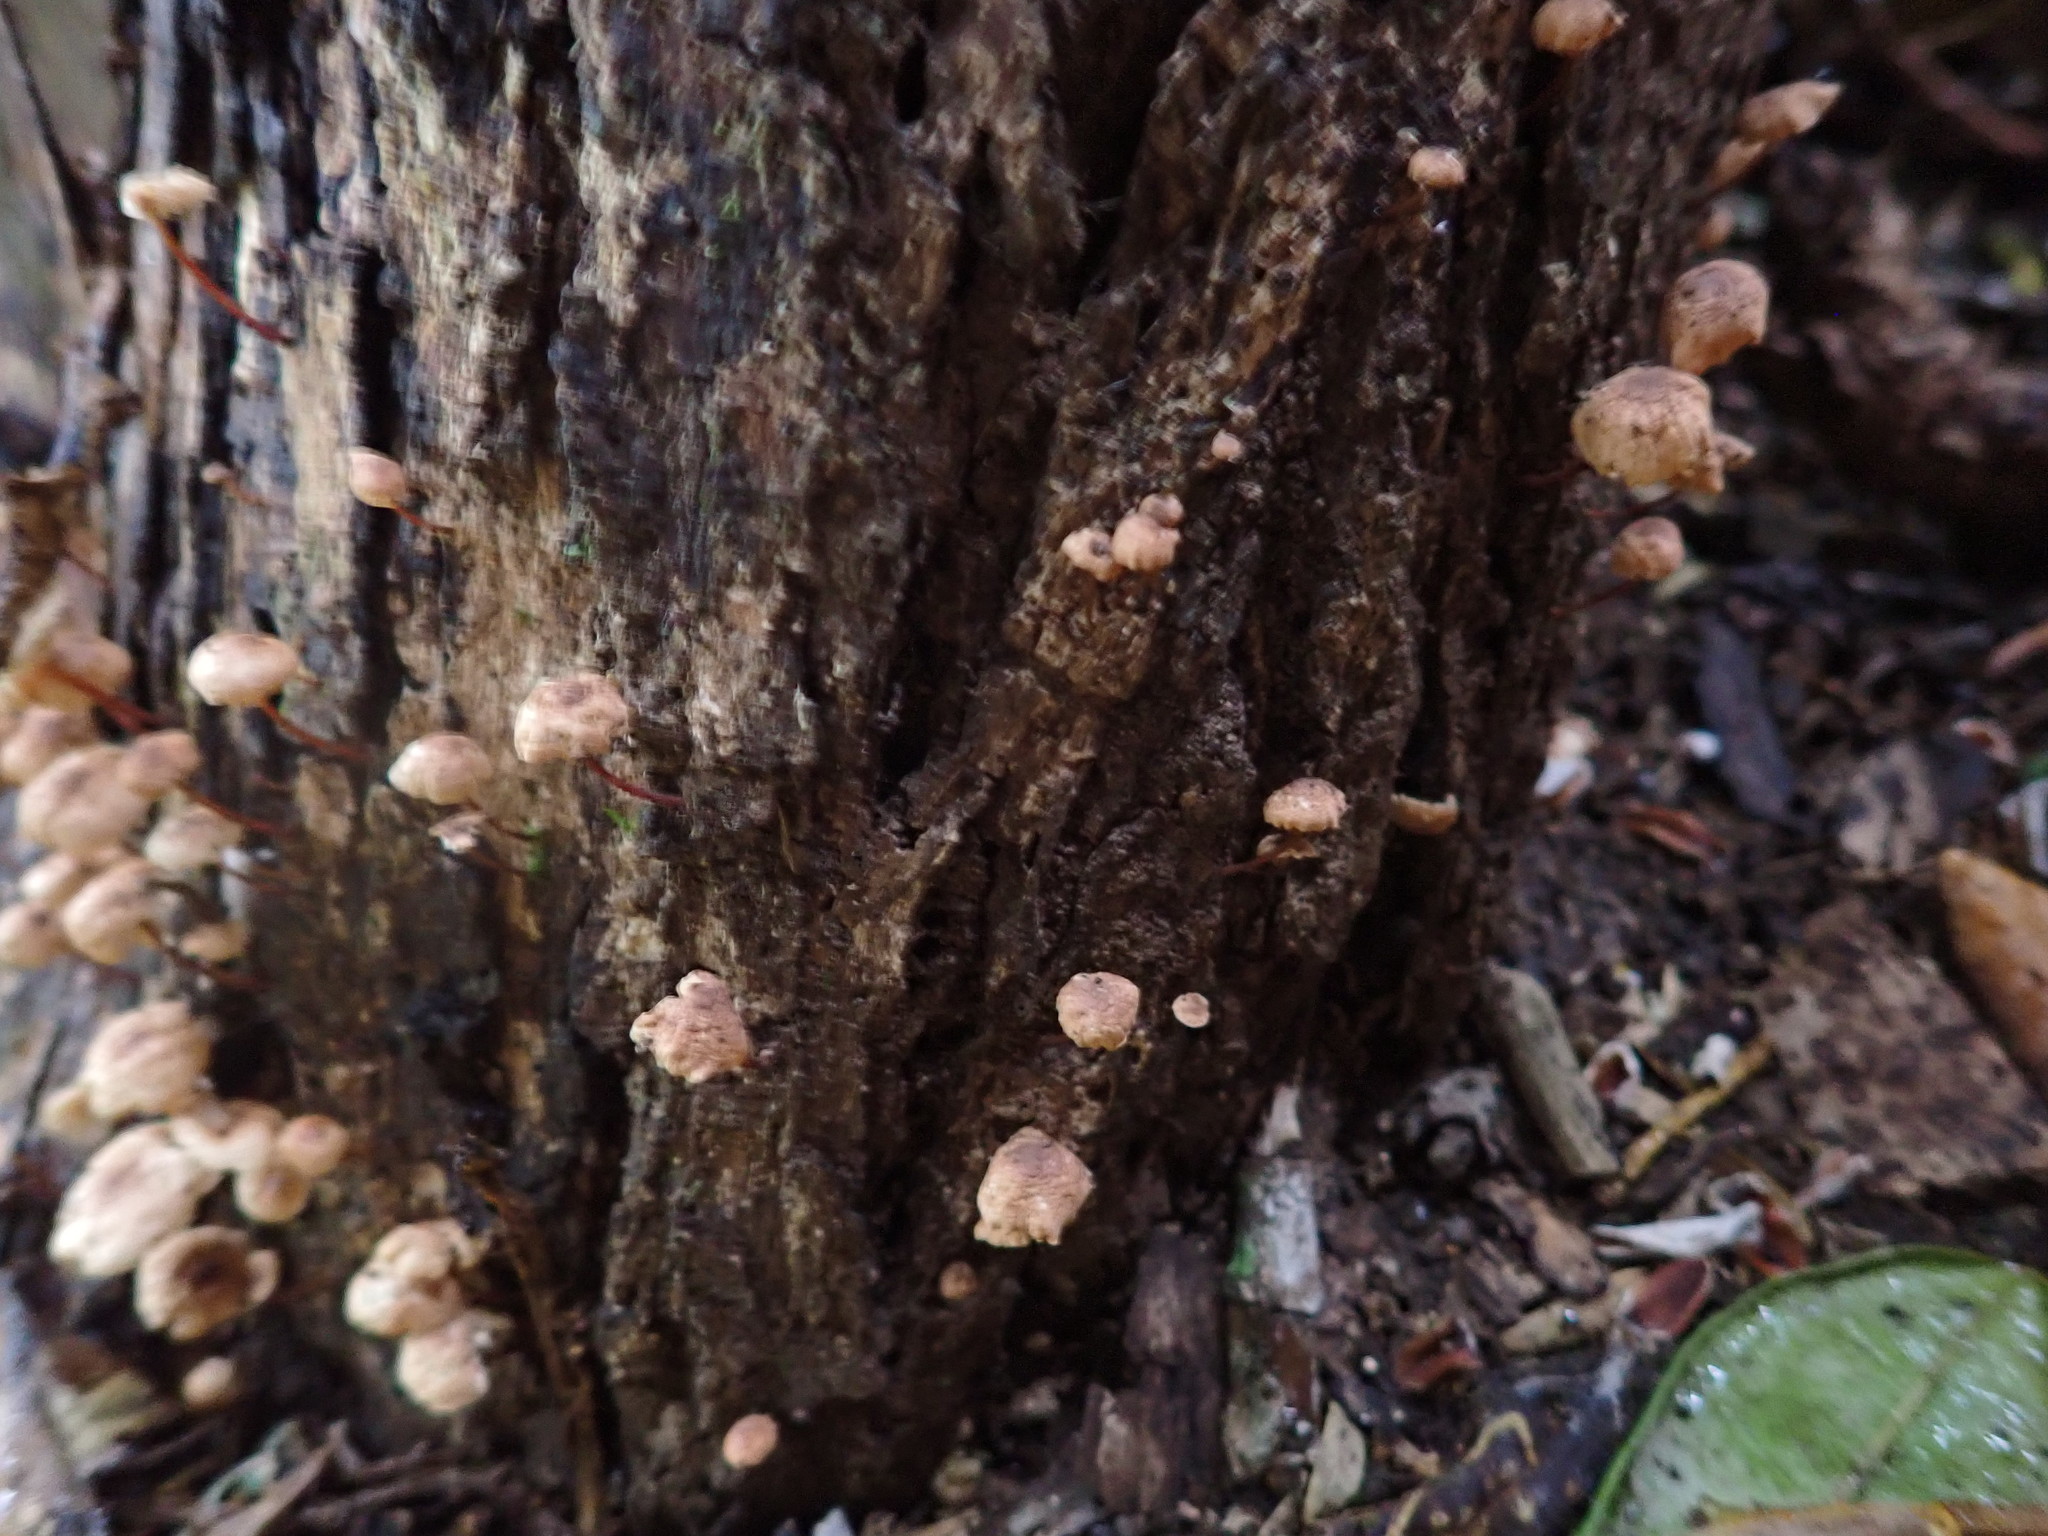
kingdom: Fungi
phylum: Basidiomycota
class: Agaricomycetes
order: Agaricales
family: Omphalotaceae
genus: Mycetinis
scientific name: Mycetinis curraniae
